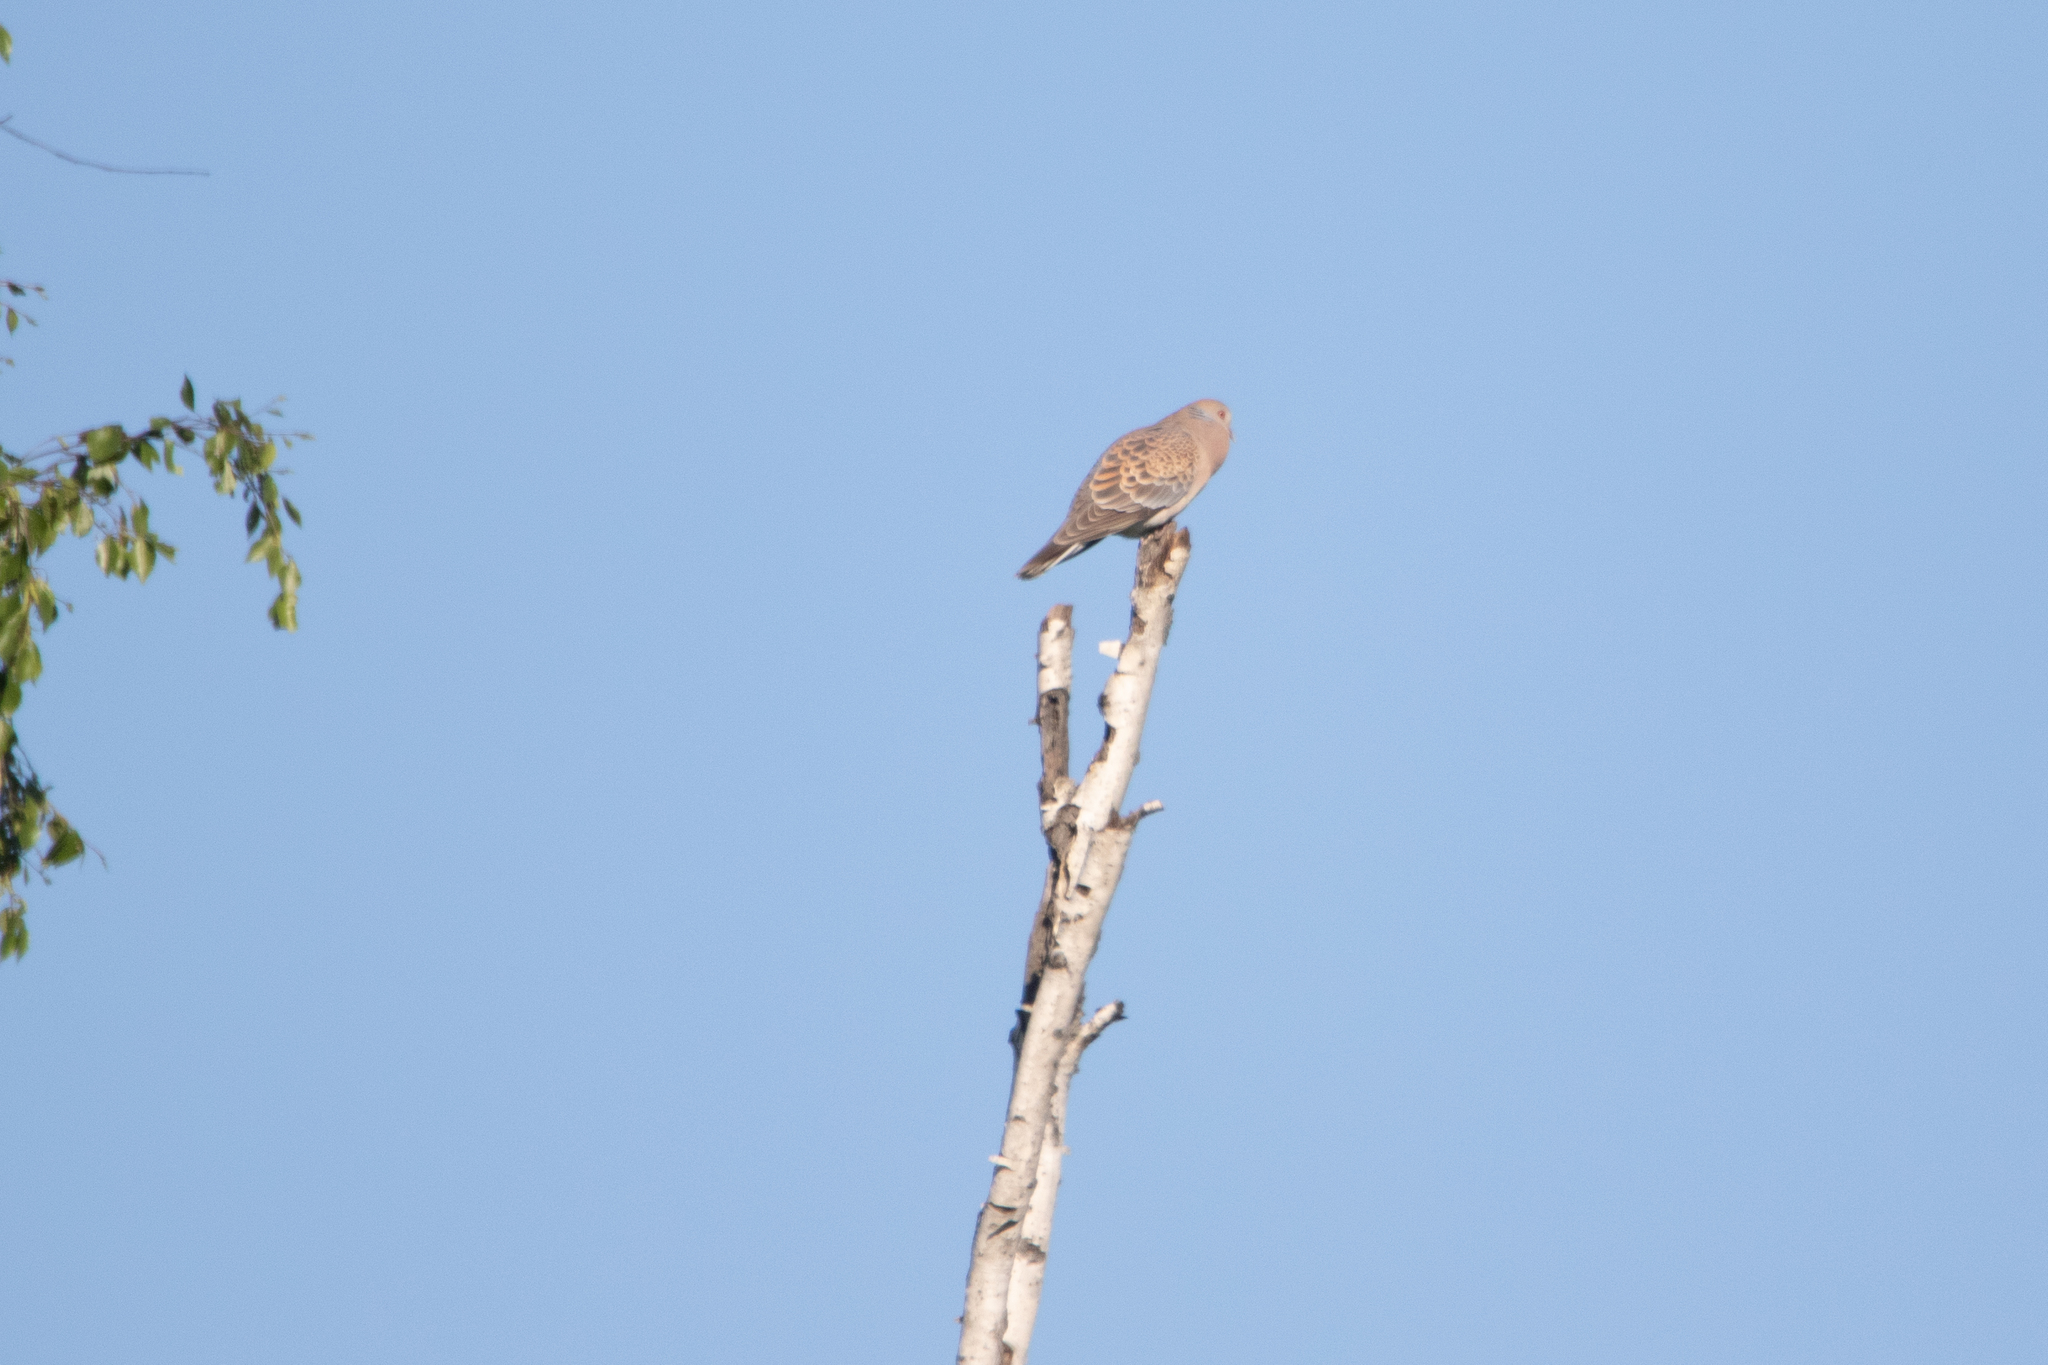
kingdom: Animalia
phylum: Chordata
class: Aves
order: Columbiformes
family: Columbidae
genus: Streptopelia
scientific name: Streptopelia orientalis
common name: Oriental turtle dove
